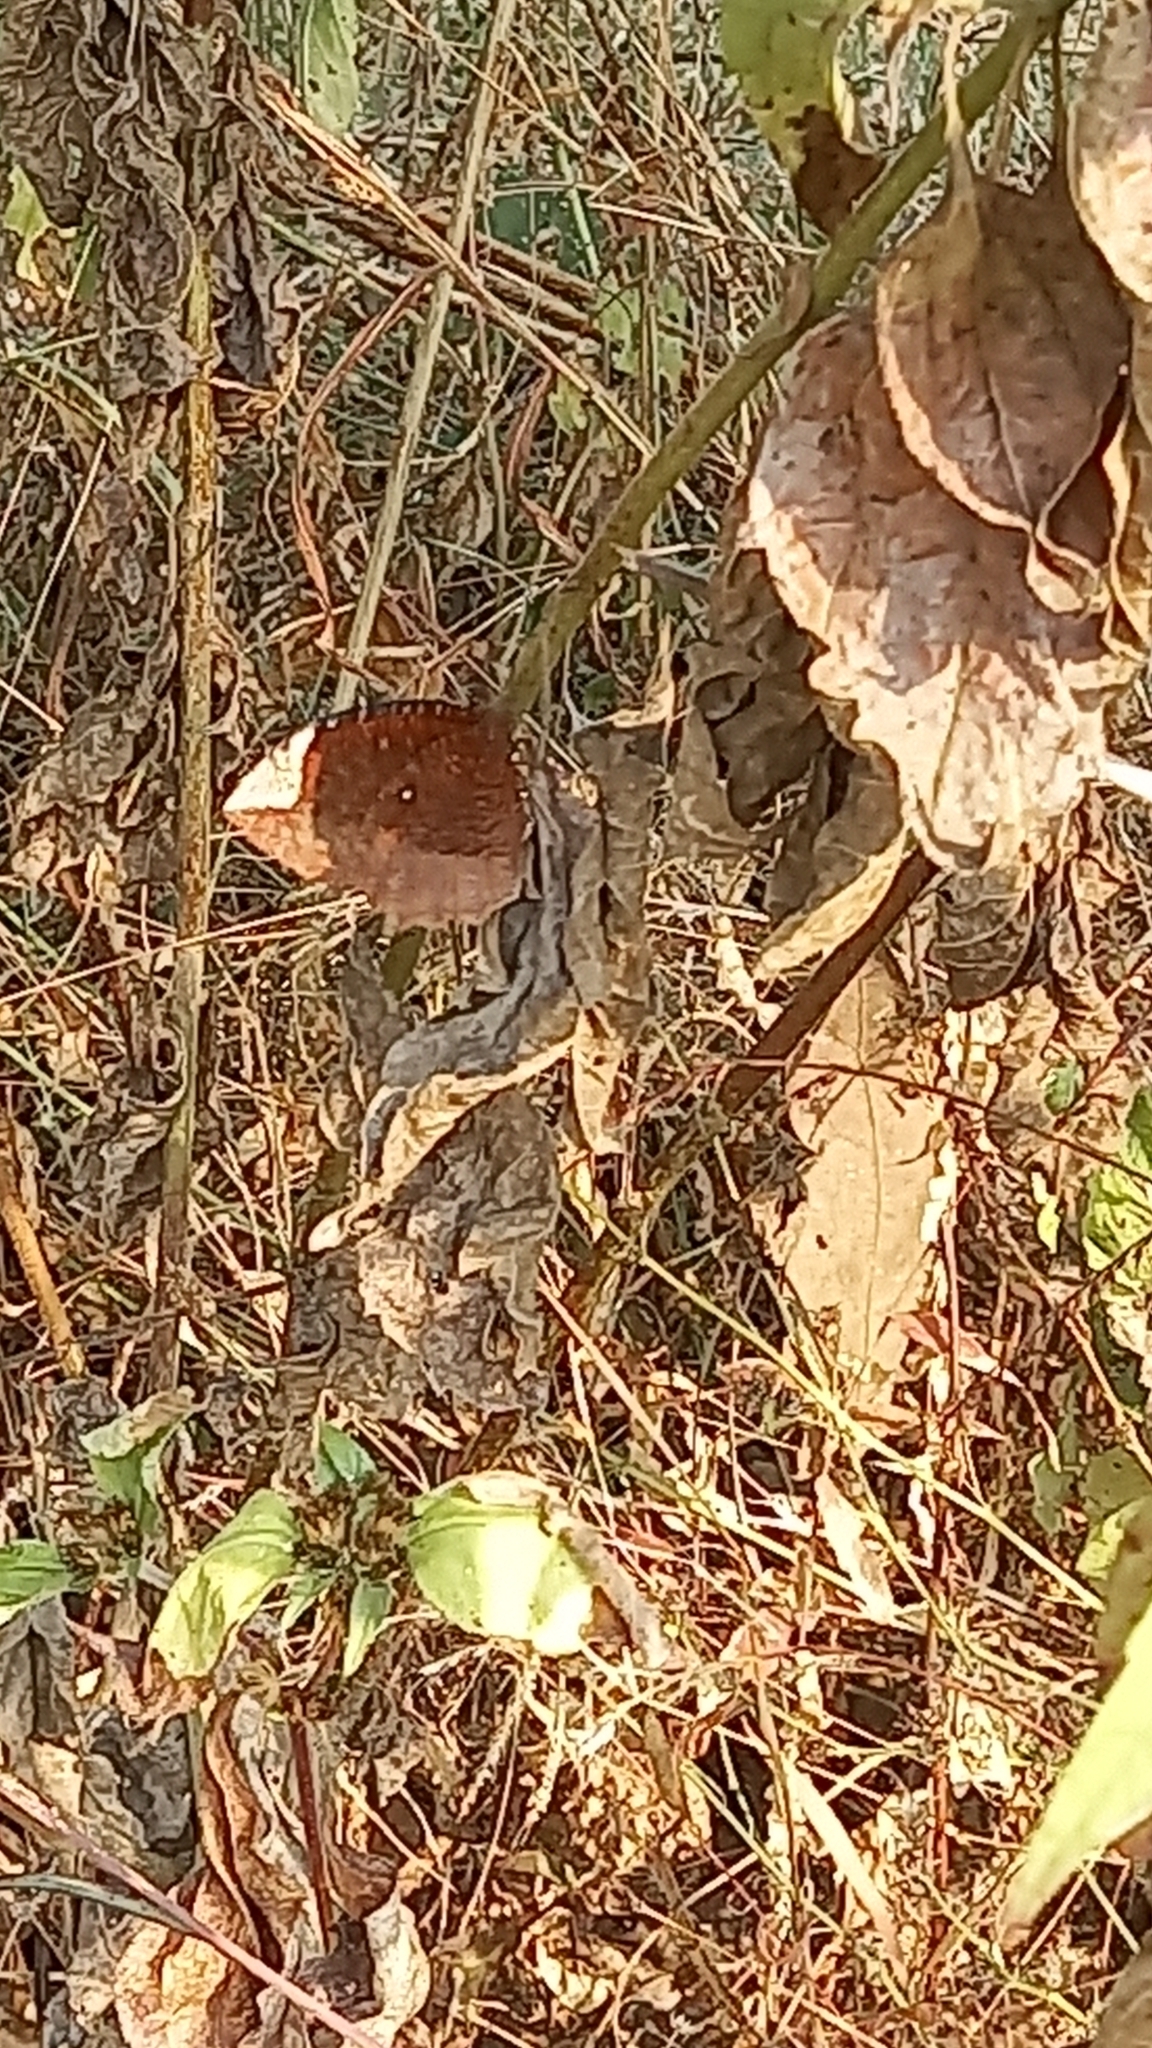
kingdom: Animalia
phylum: Arthropoda
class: Insecta
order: Lepidoptera
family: Nymphalidae
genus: Elymnias
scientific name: Elymnias hypermnestra
